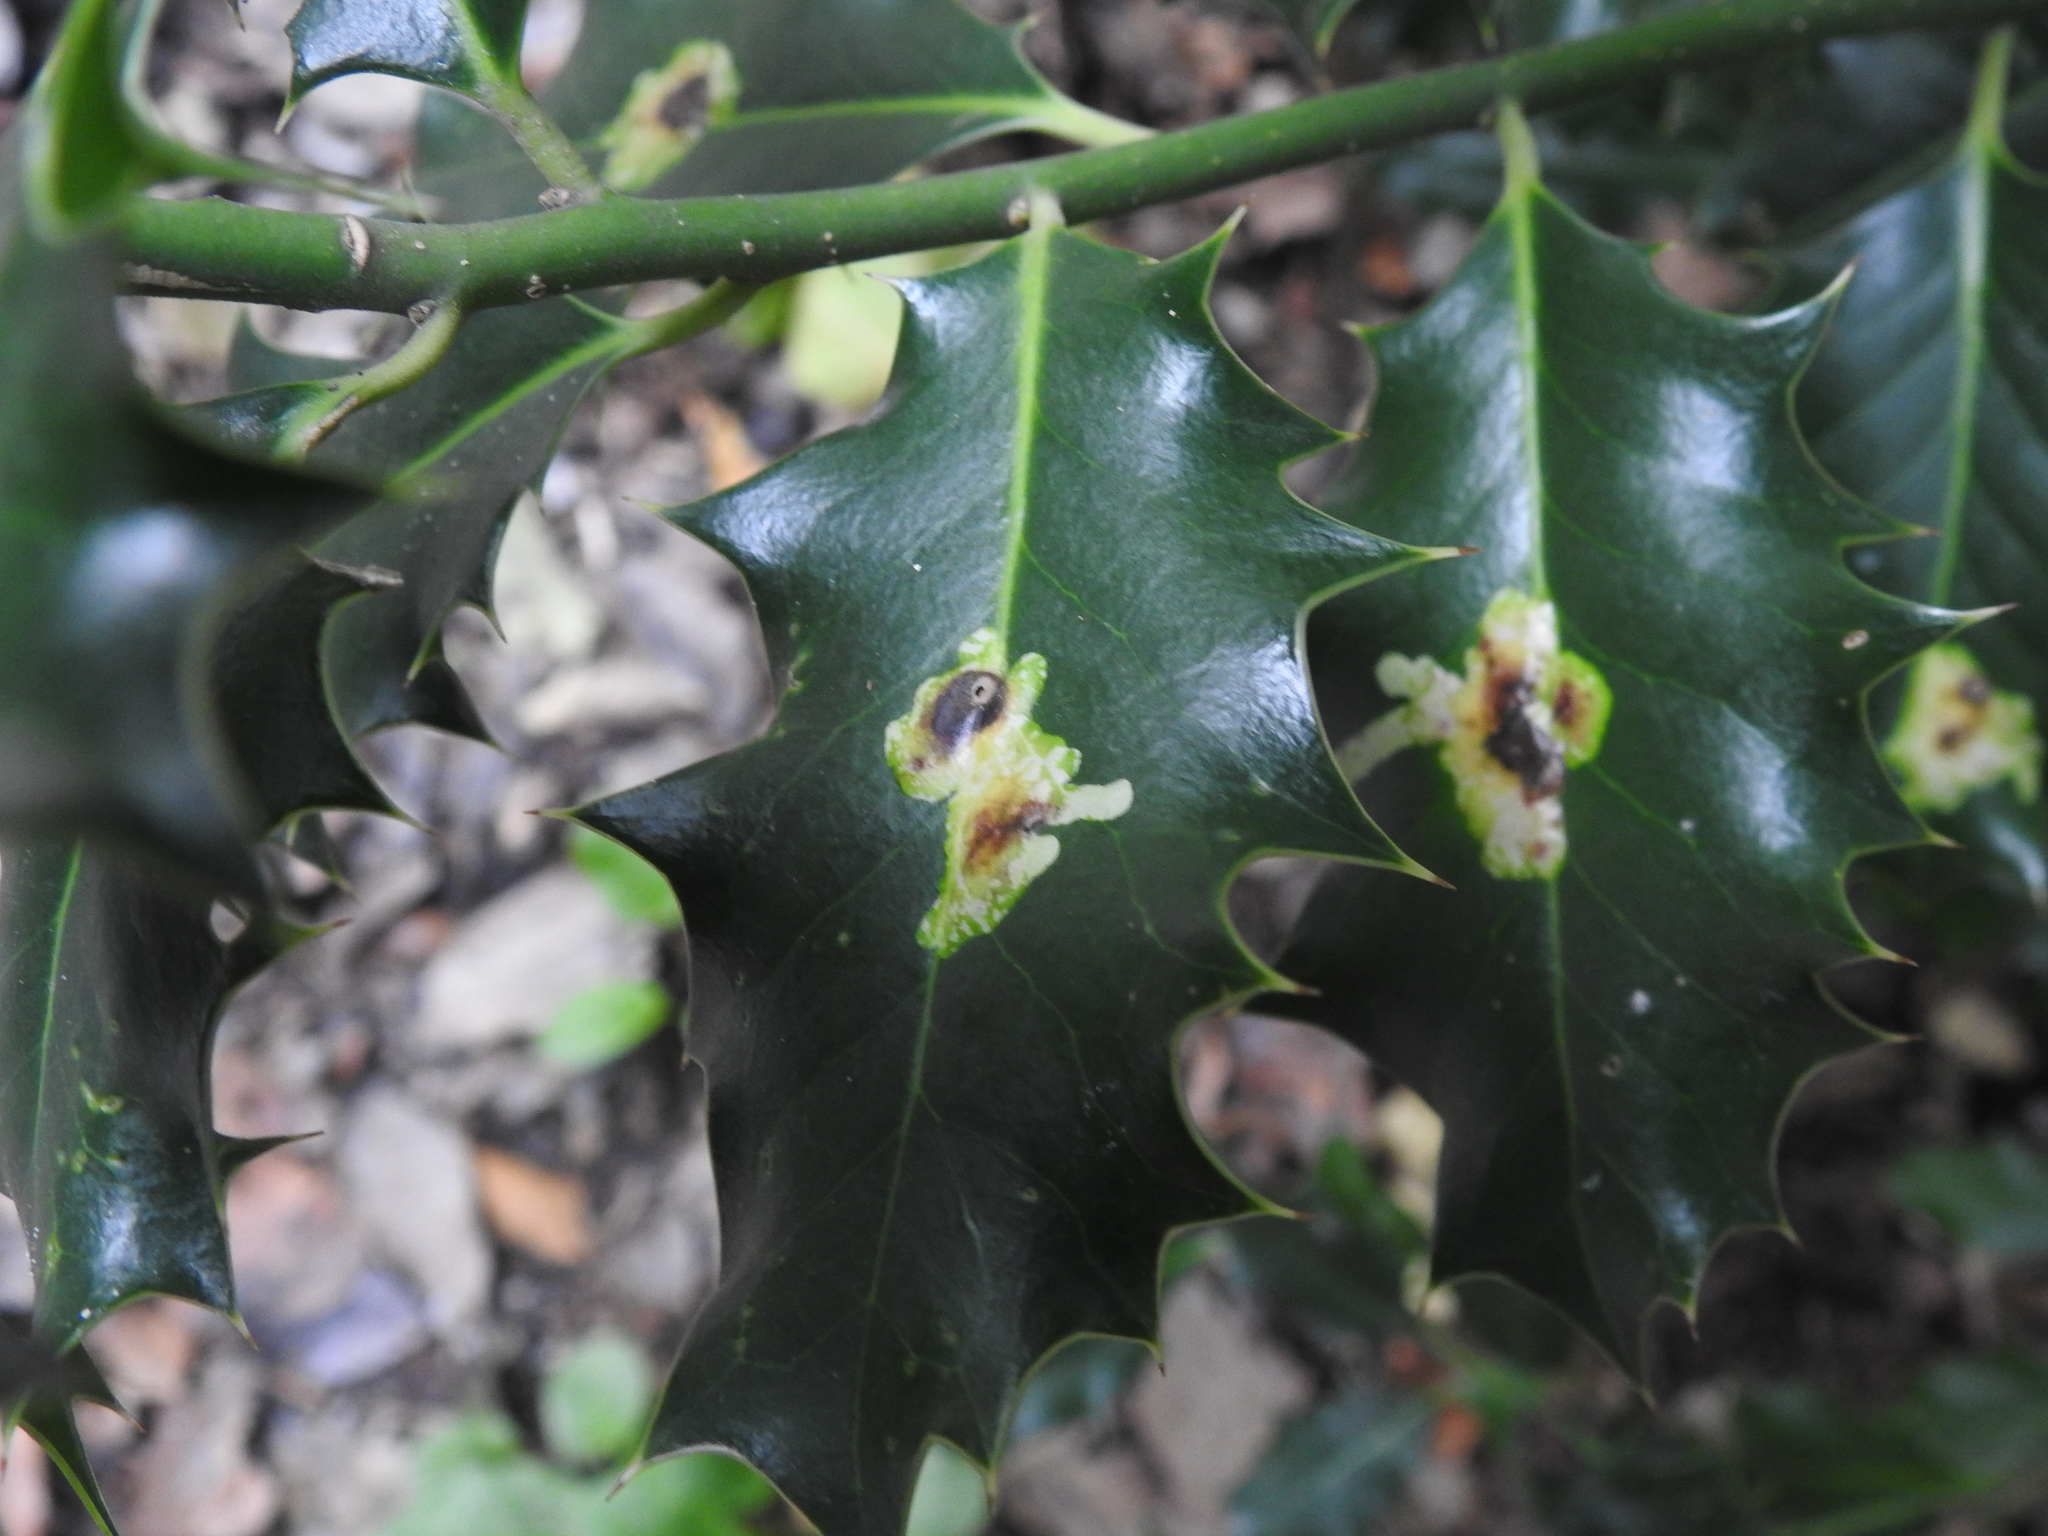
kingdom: Animalia
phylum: Arthropoda
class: Insecta
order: Diptera
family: Agromyzidae
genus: Phytomyza
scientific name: Phytomyza ilicis
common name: Holly leafminer
